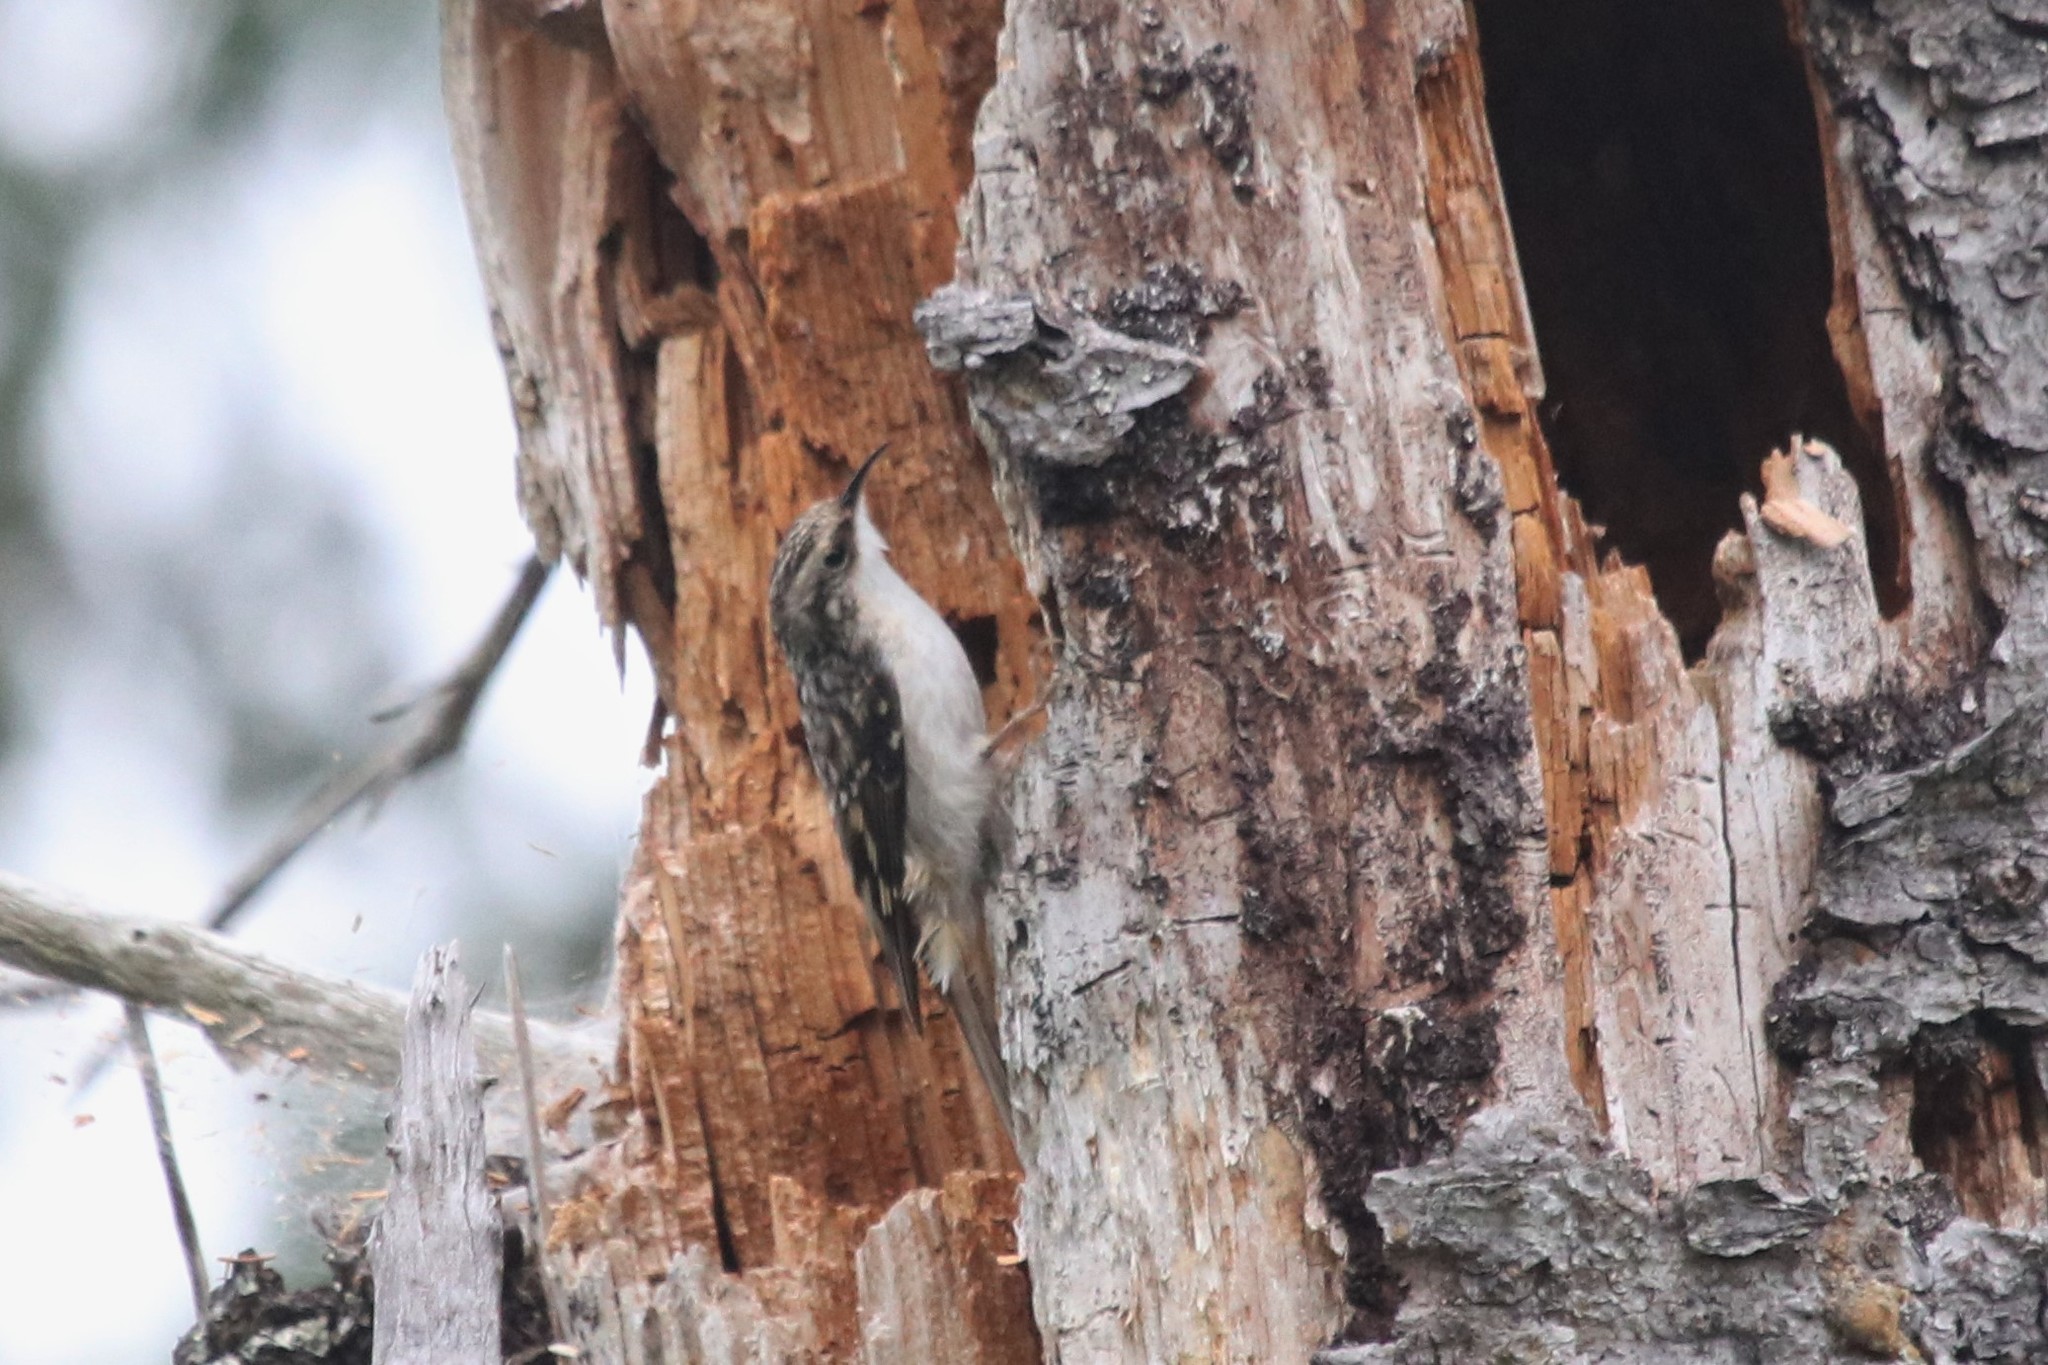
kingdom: Animalia
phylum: Chordata
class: Aves
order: Passeriformes
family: Certhiidae
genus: Certhia
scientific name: Certhia americana
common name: Brown creeper
